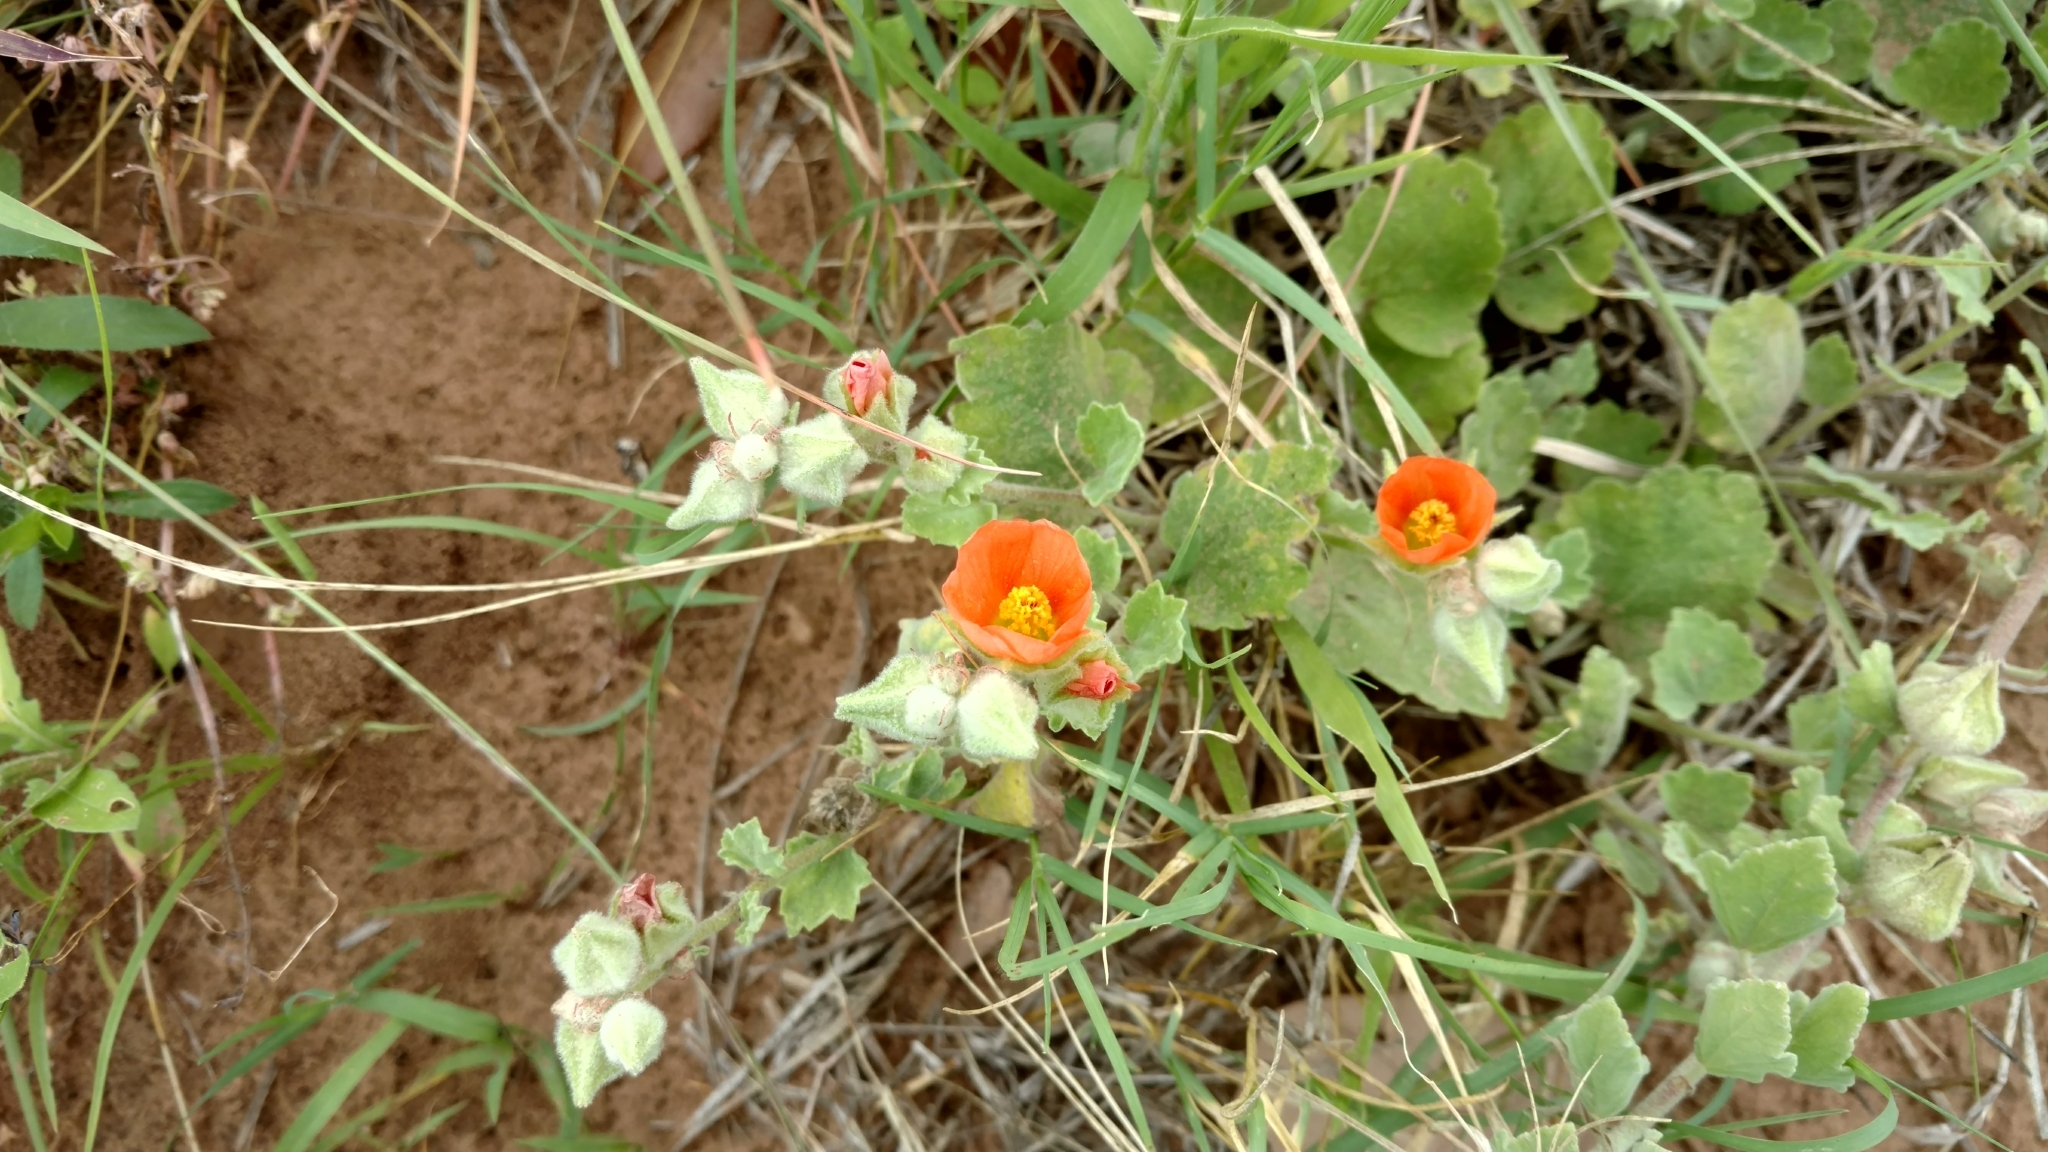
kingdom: Plantae
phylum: Tracheophyta
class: Magnoliopsida
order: Malvales
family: Malvaceae
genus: Sphaeralcea
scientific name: Sphaeralcea lindheimeri
